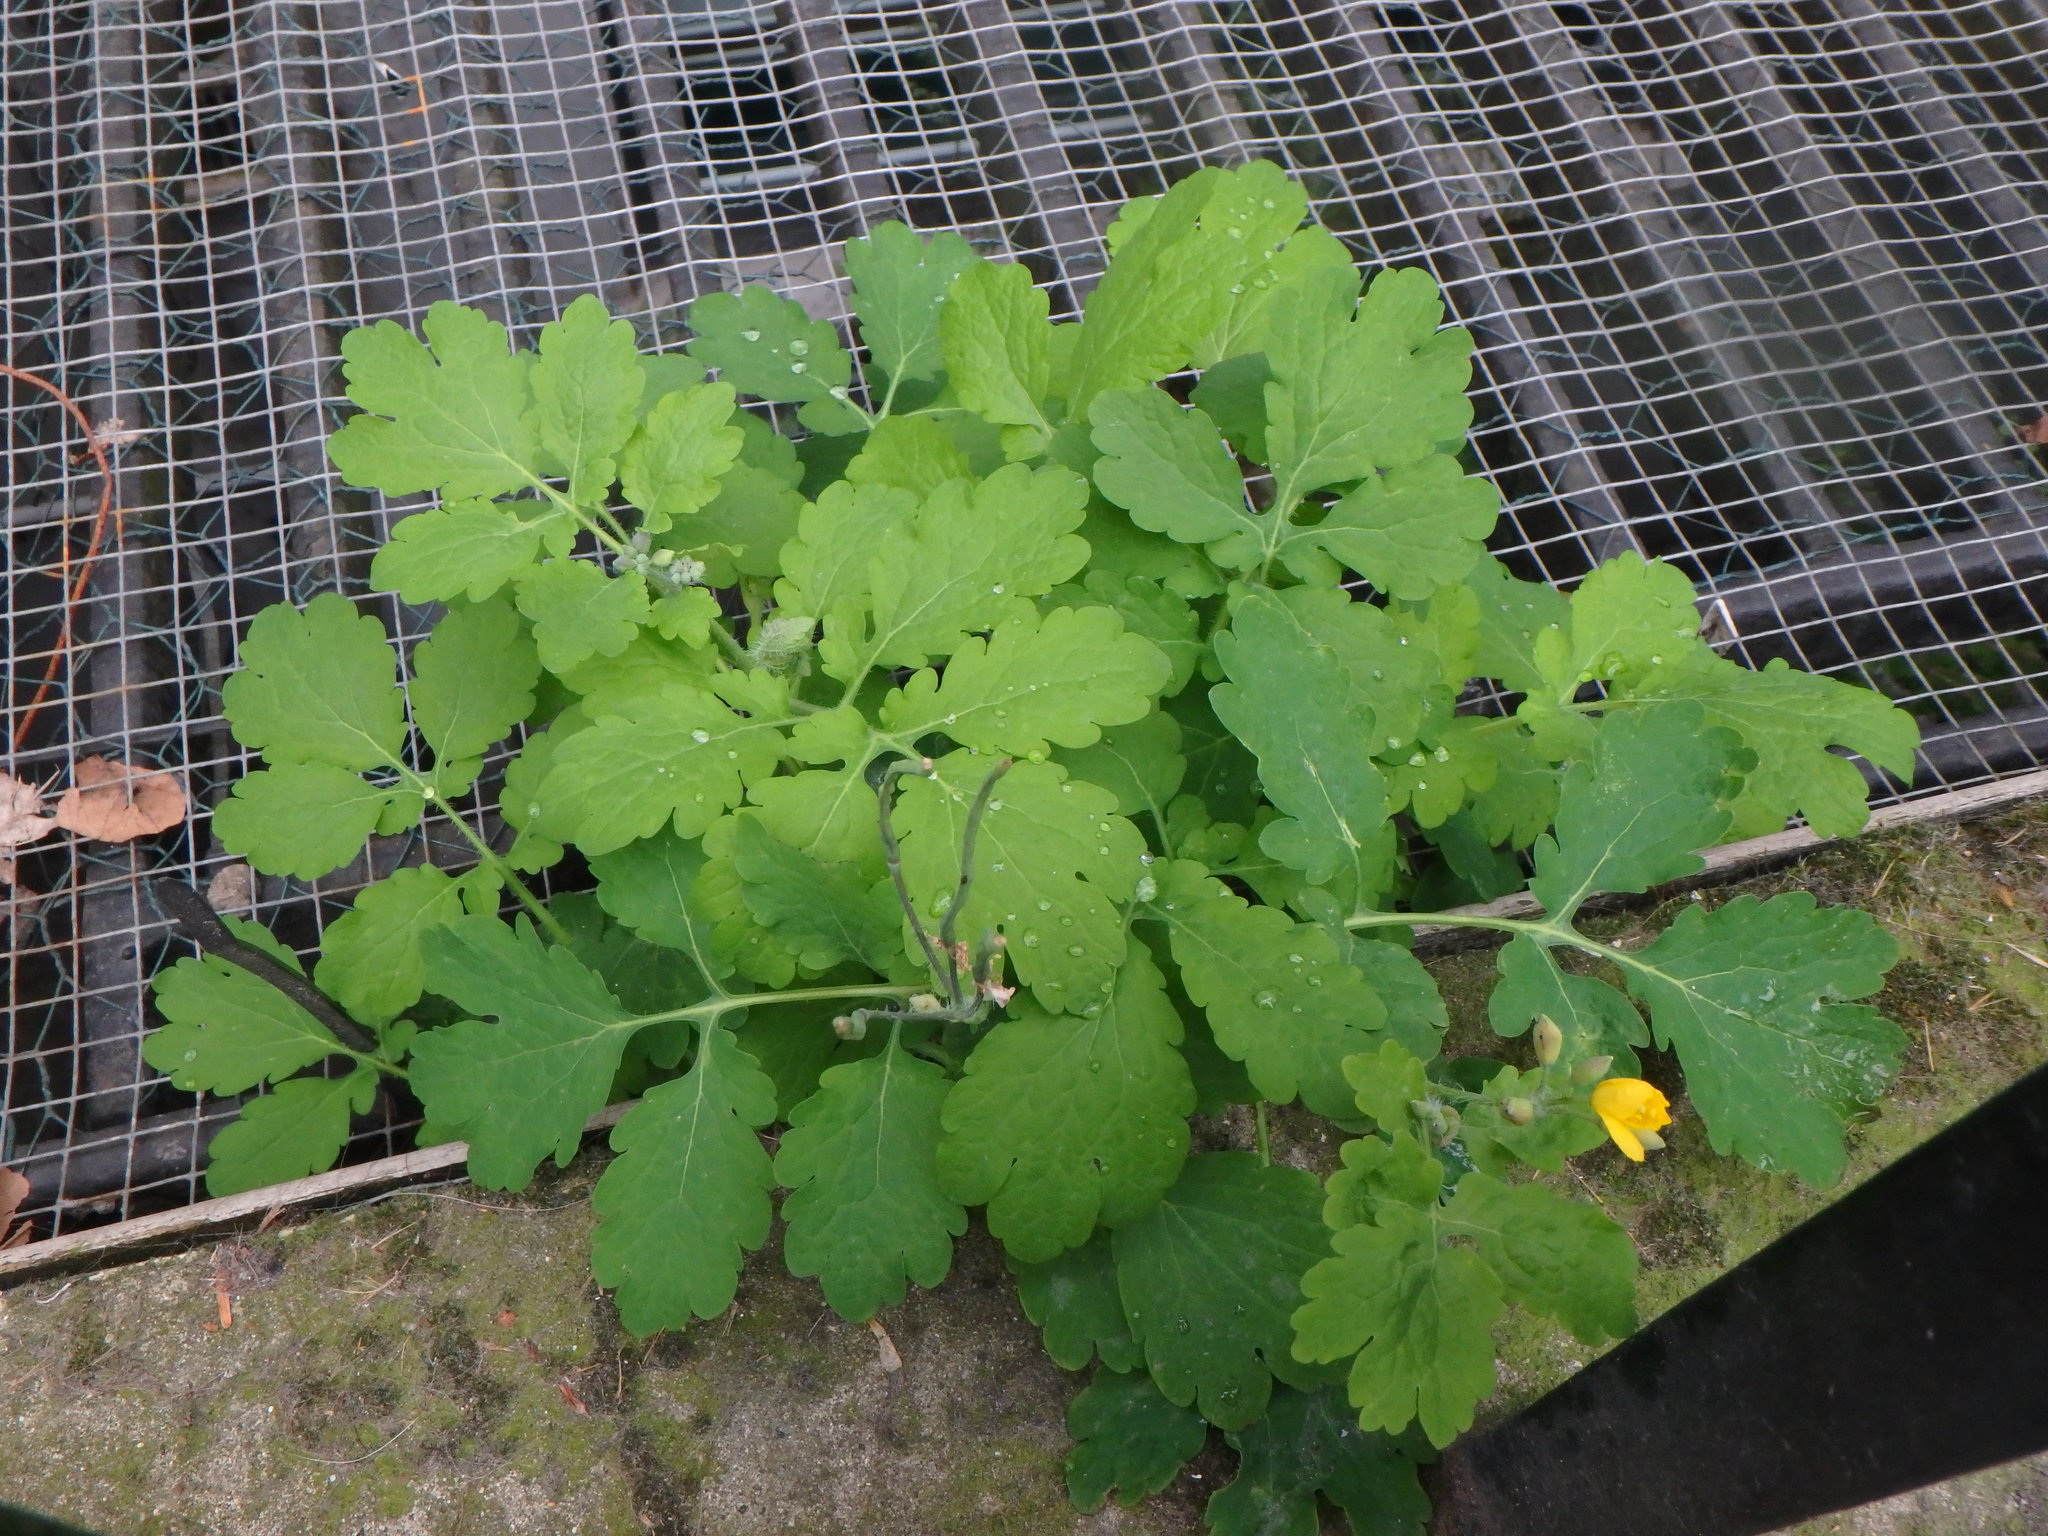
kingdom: Plantae
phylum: Tracheophyta
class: Magnoliopsida
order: Ranunculales
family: Papaveraceae
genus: Chelidonium
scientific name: Chelidonium majus
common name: Greater celandine
